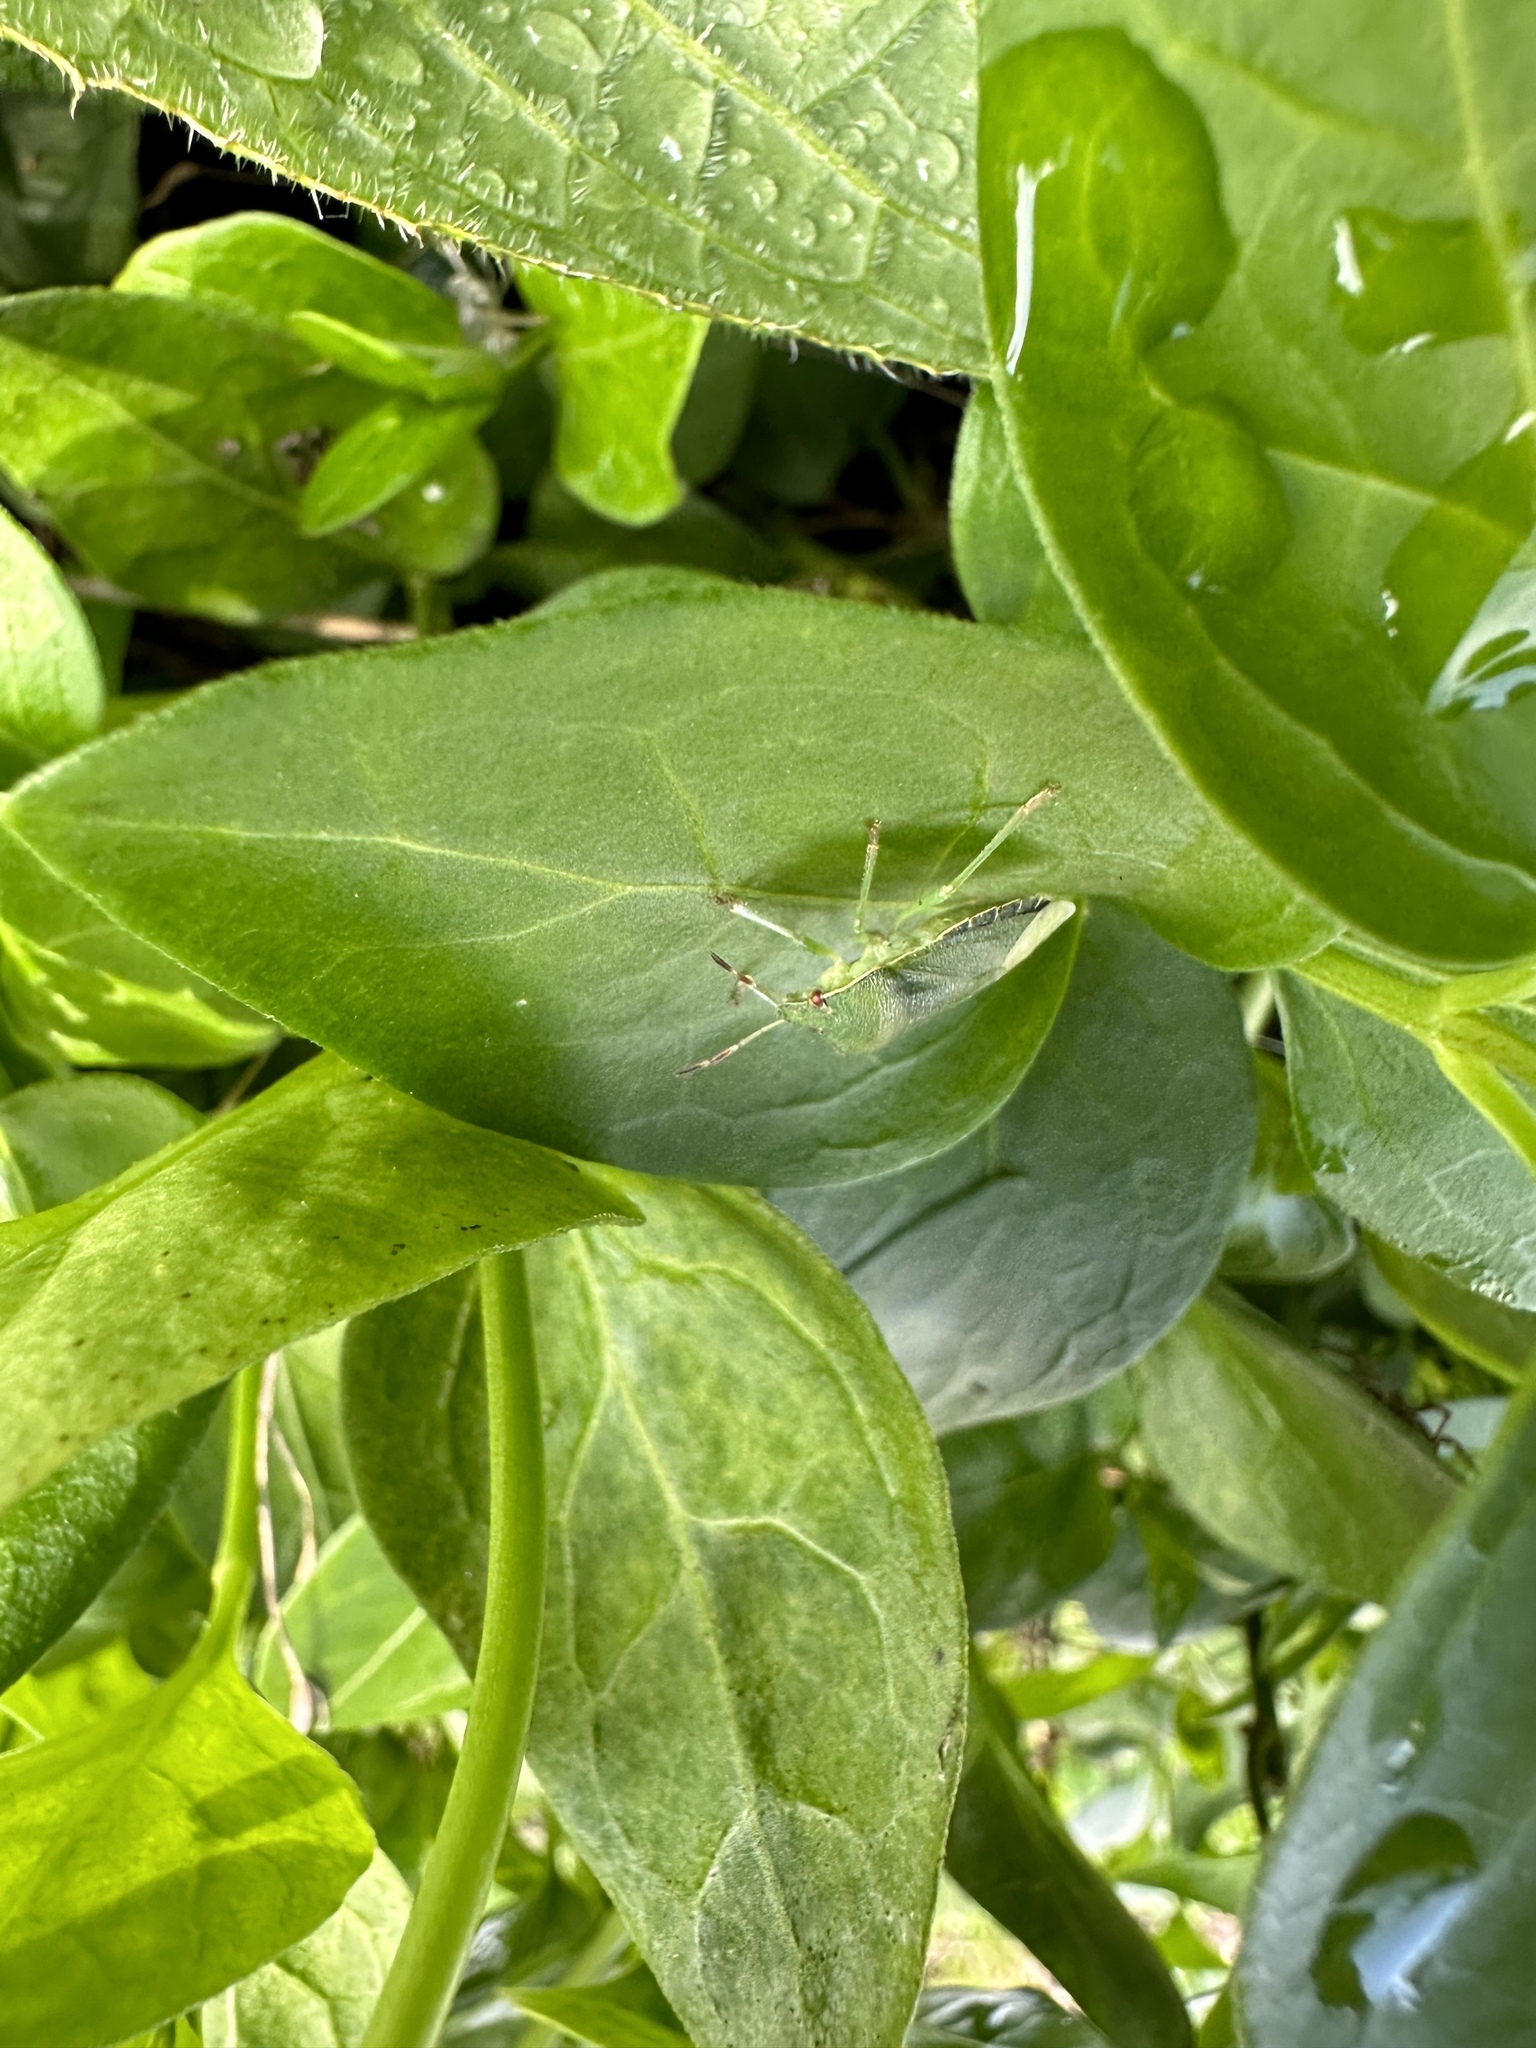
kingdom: Animalia
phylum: Arthropoda
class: Insecta
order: Hemiptera
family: Pentatomidae
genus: Palomena
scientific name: Palomena prasina
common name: Green shieldbug
